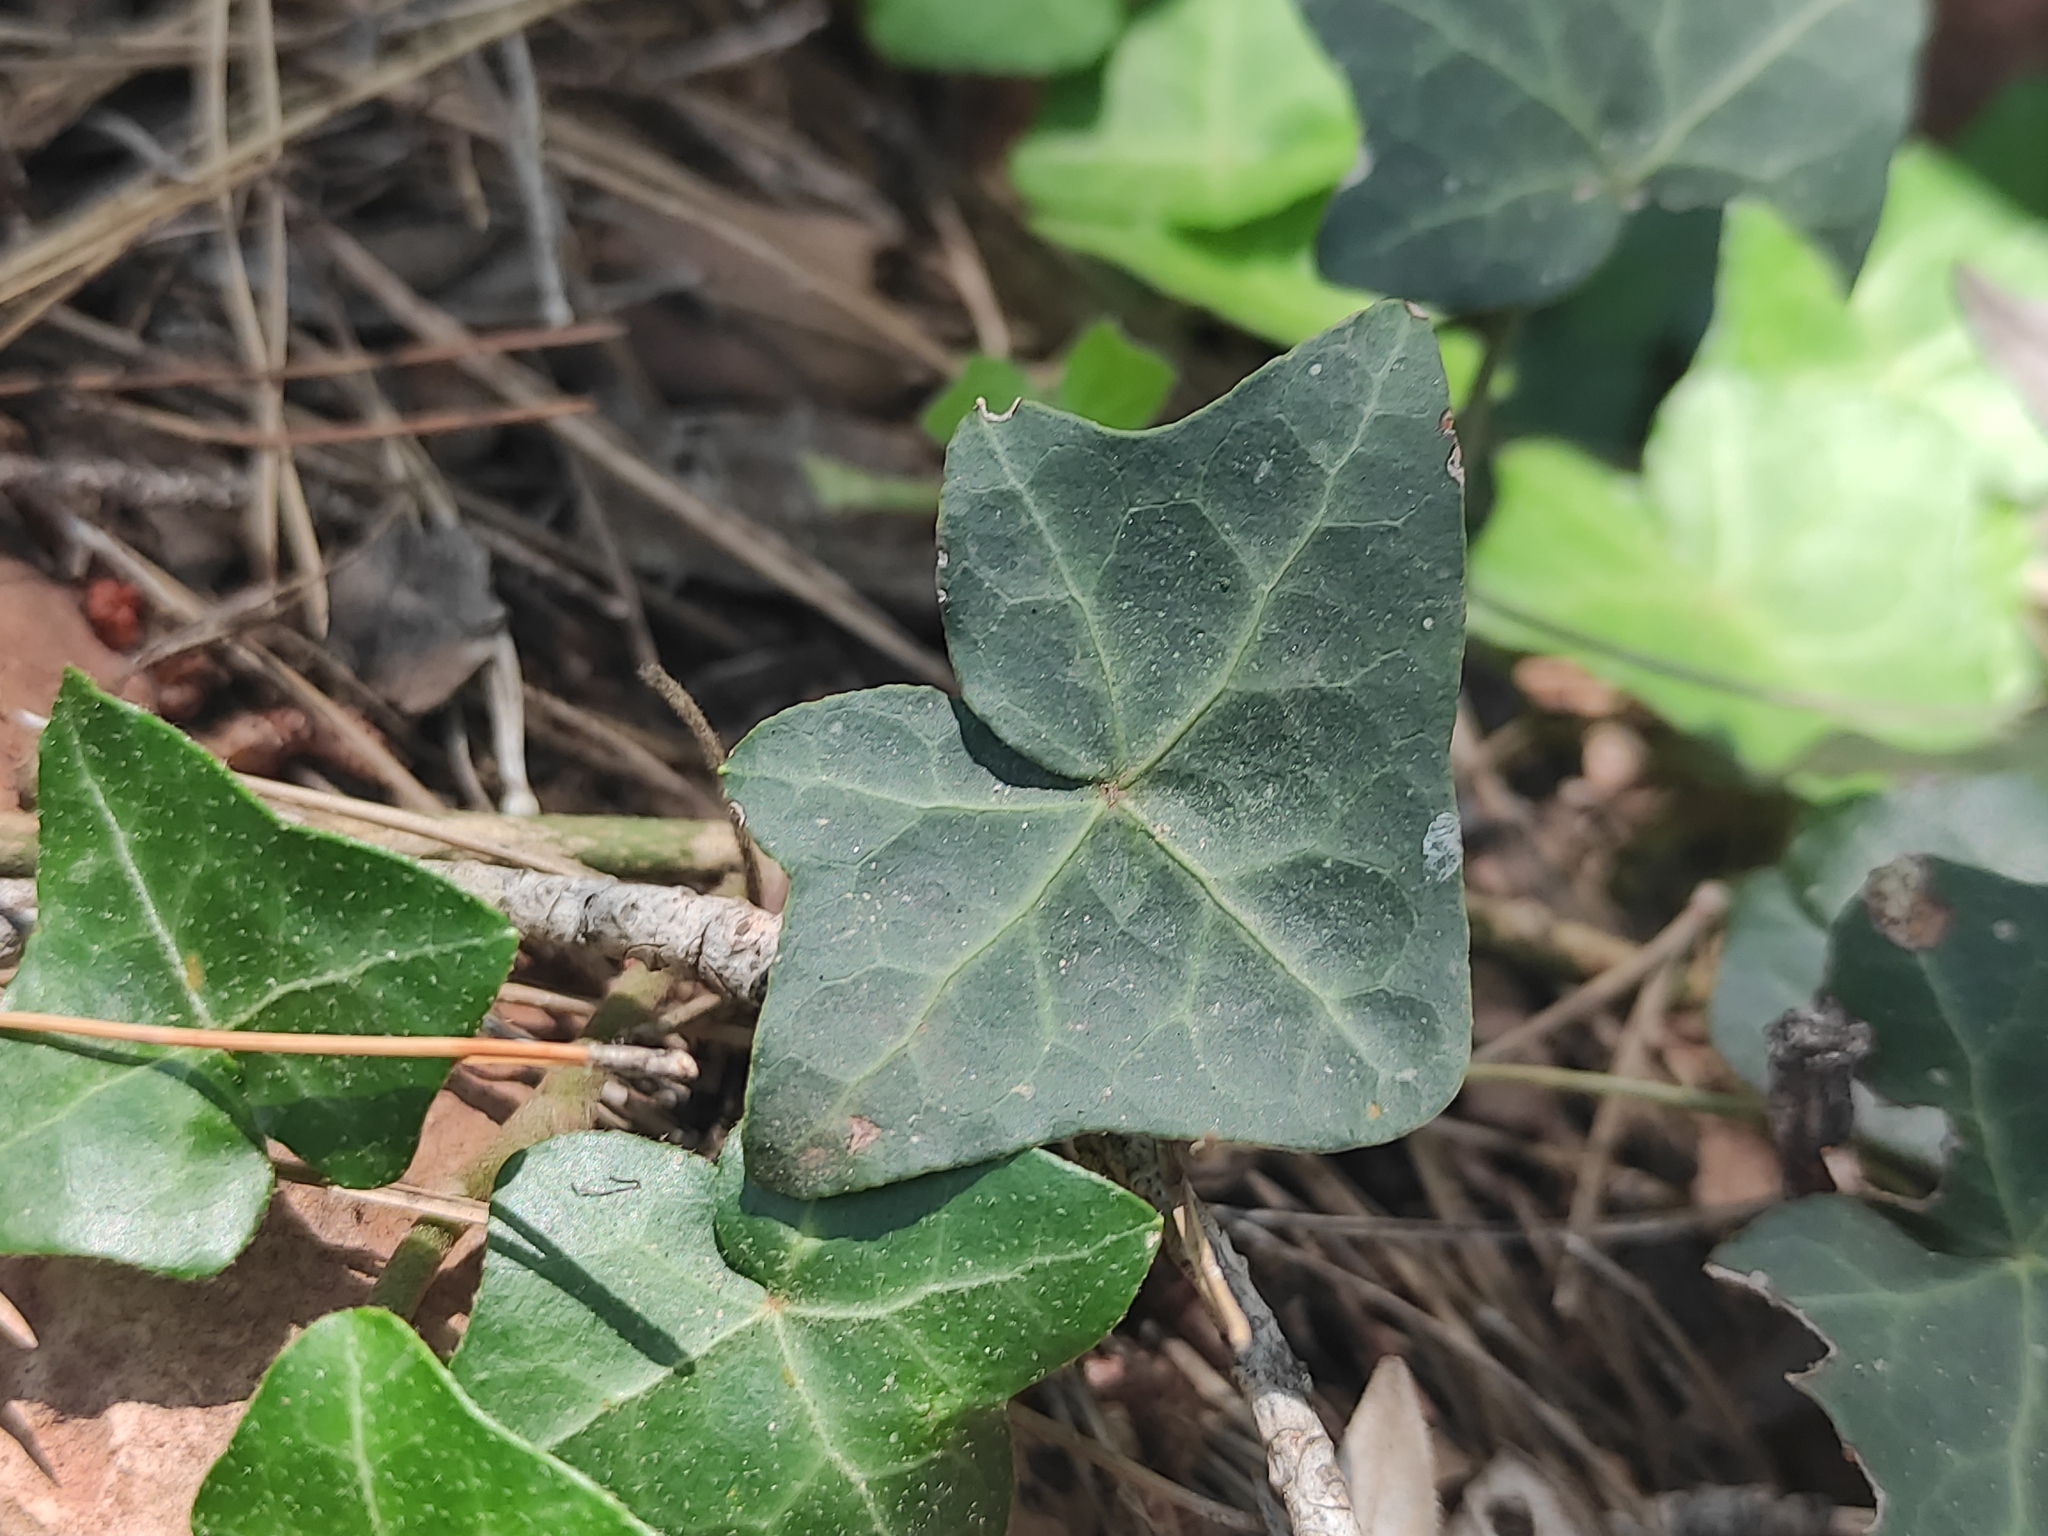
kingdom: Plantae
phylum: Tracheophyta
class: Magnoliopsida
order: Apiales
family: Araliaceae
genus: Hedera
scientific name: Hedera helix
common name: Ivy
